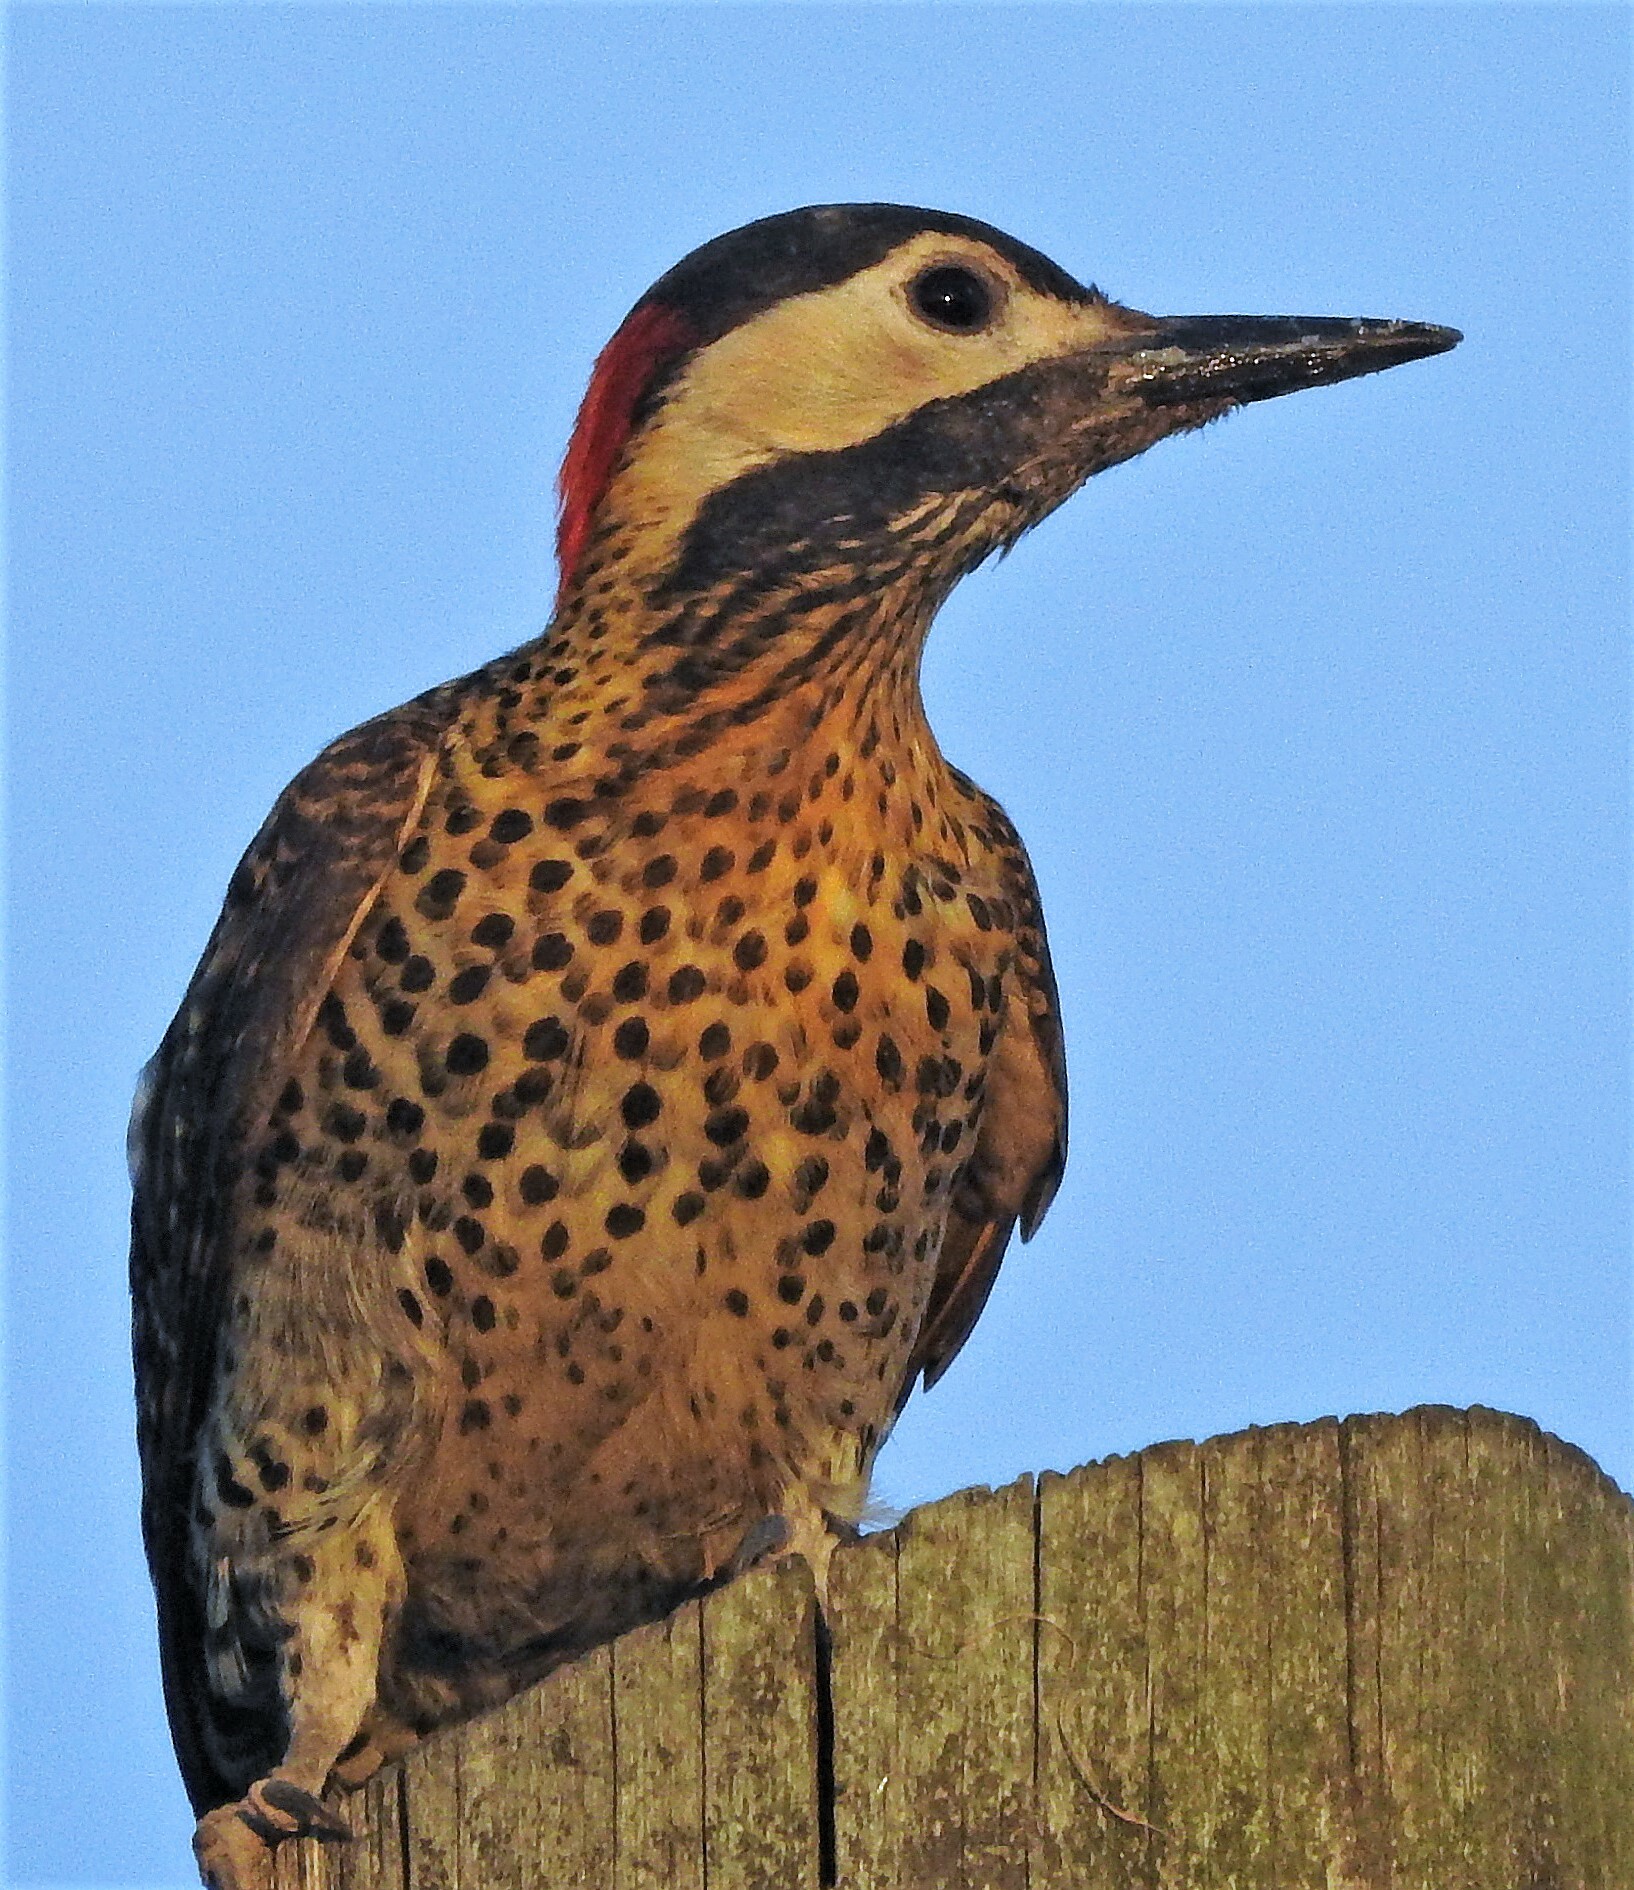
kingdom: Animalia
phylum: Chordata
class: Aves
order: Piciformes
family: Picidae
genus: Colaptes
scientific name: Colaptes melanochloros
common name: Green-barred woodpecker
